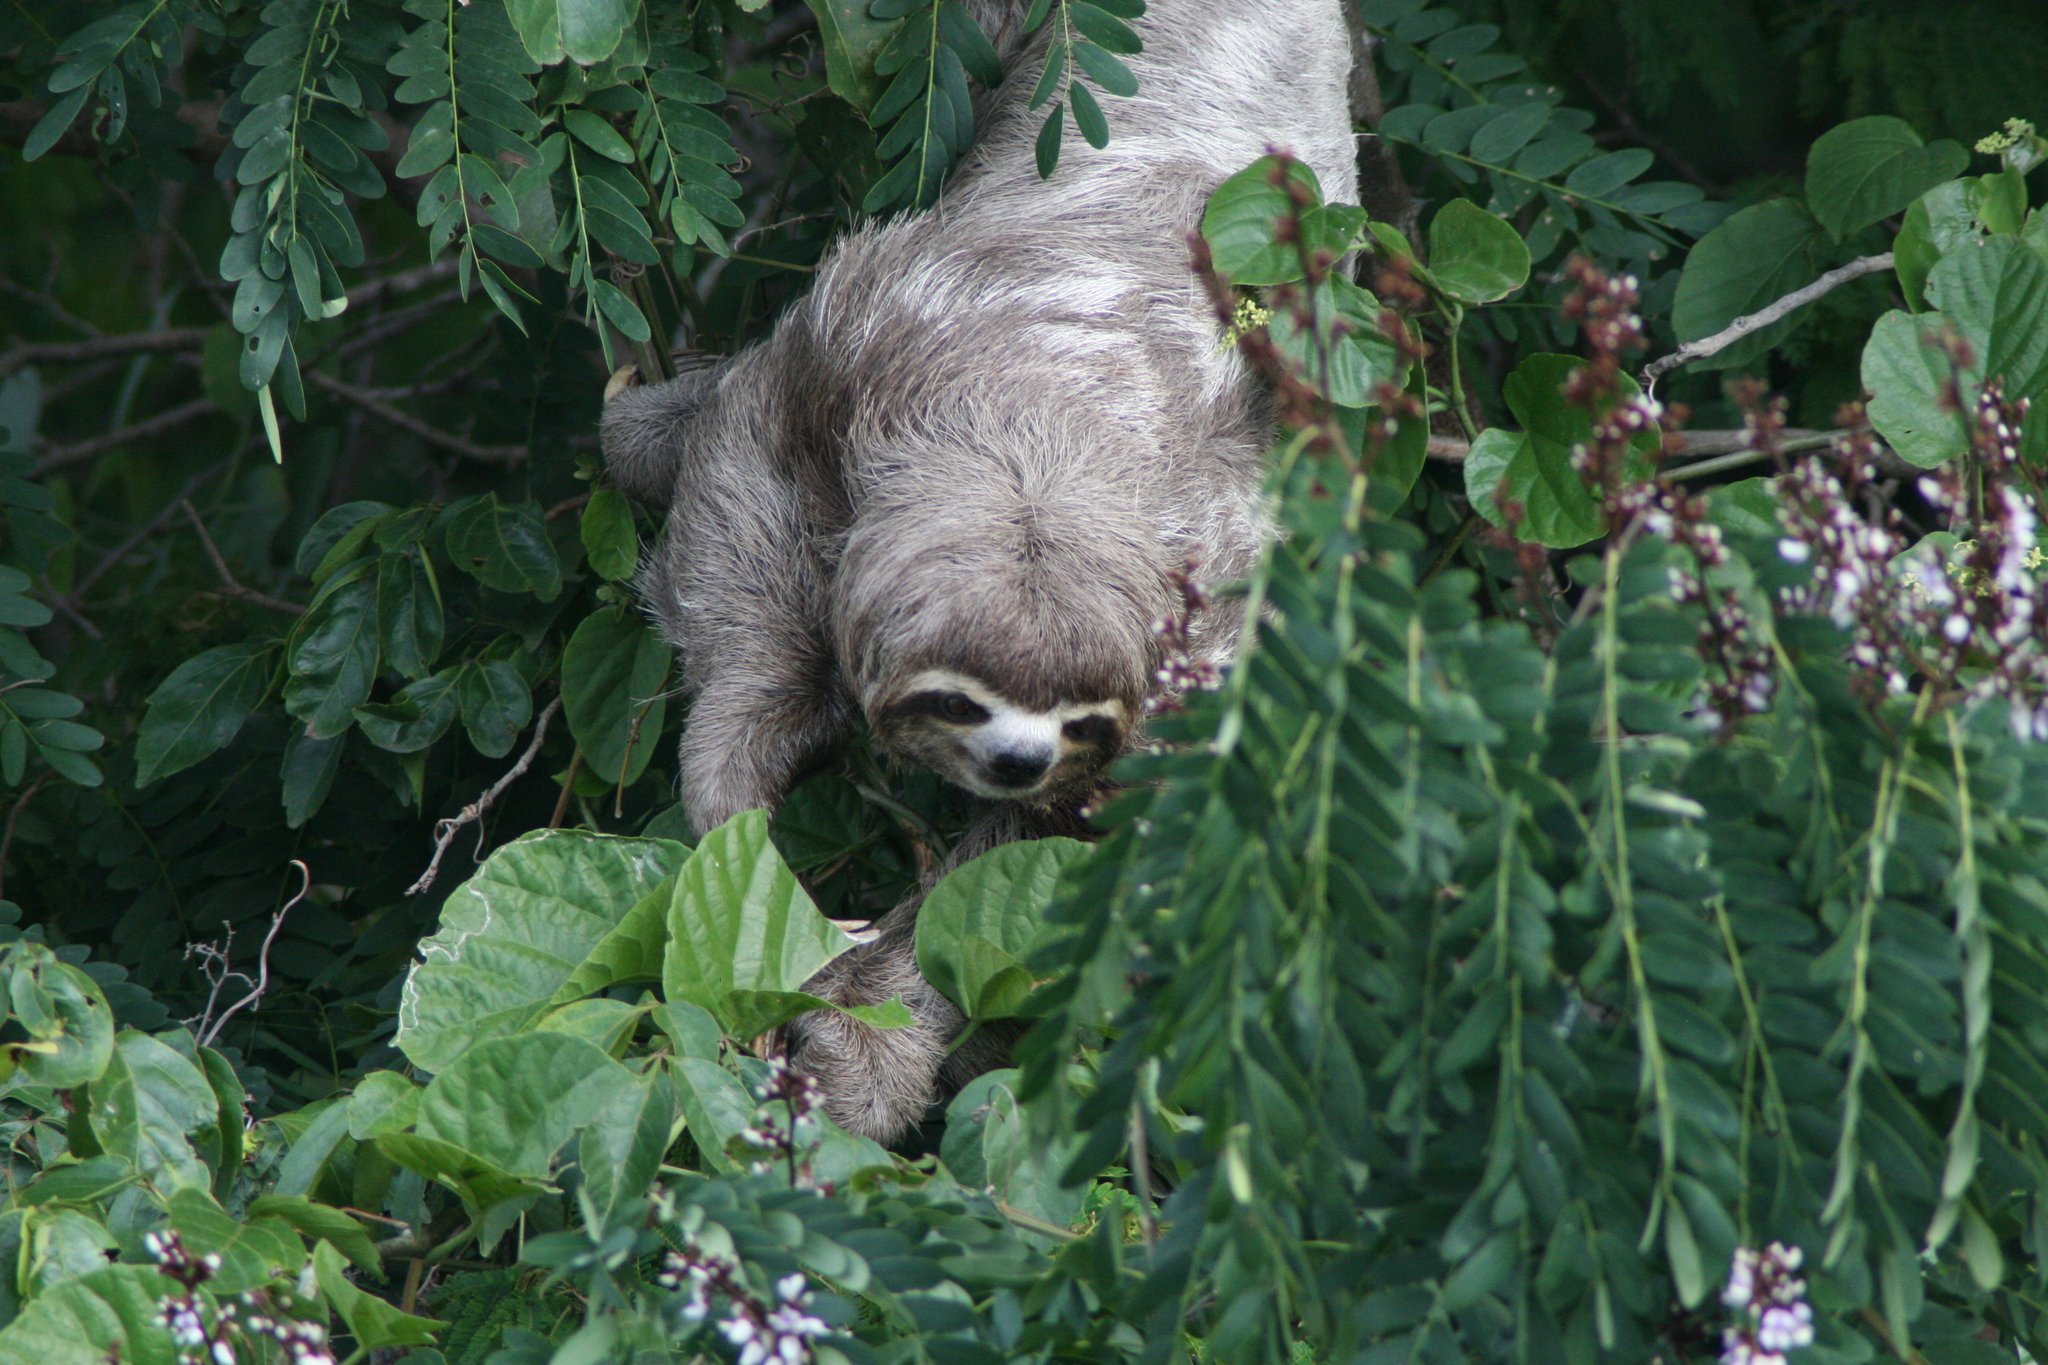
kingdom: Animalia
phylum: Chordata
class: Mammalia
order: Pilosa
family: Bradypodidae
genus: Bradypus
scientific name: Bradypus variegatus
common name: Brown-throated three-toed sloth
